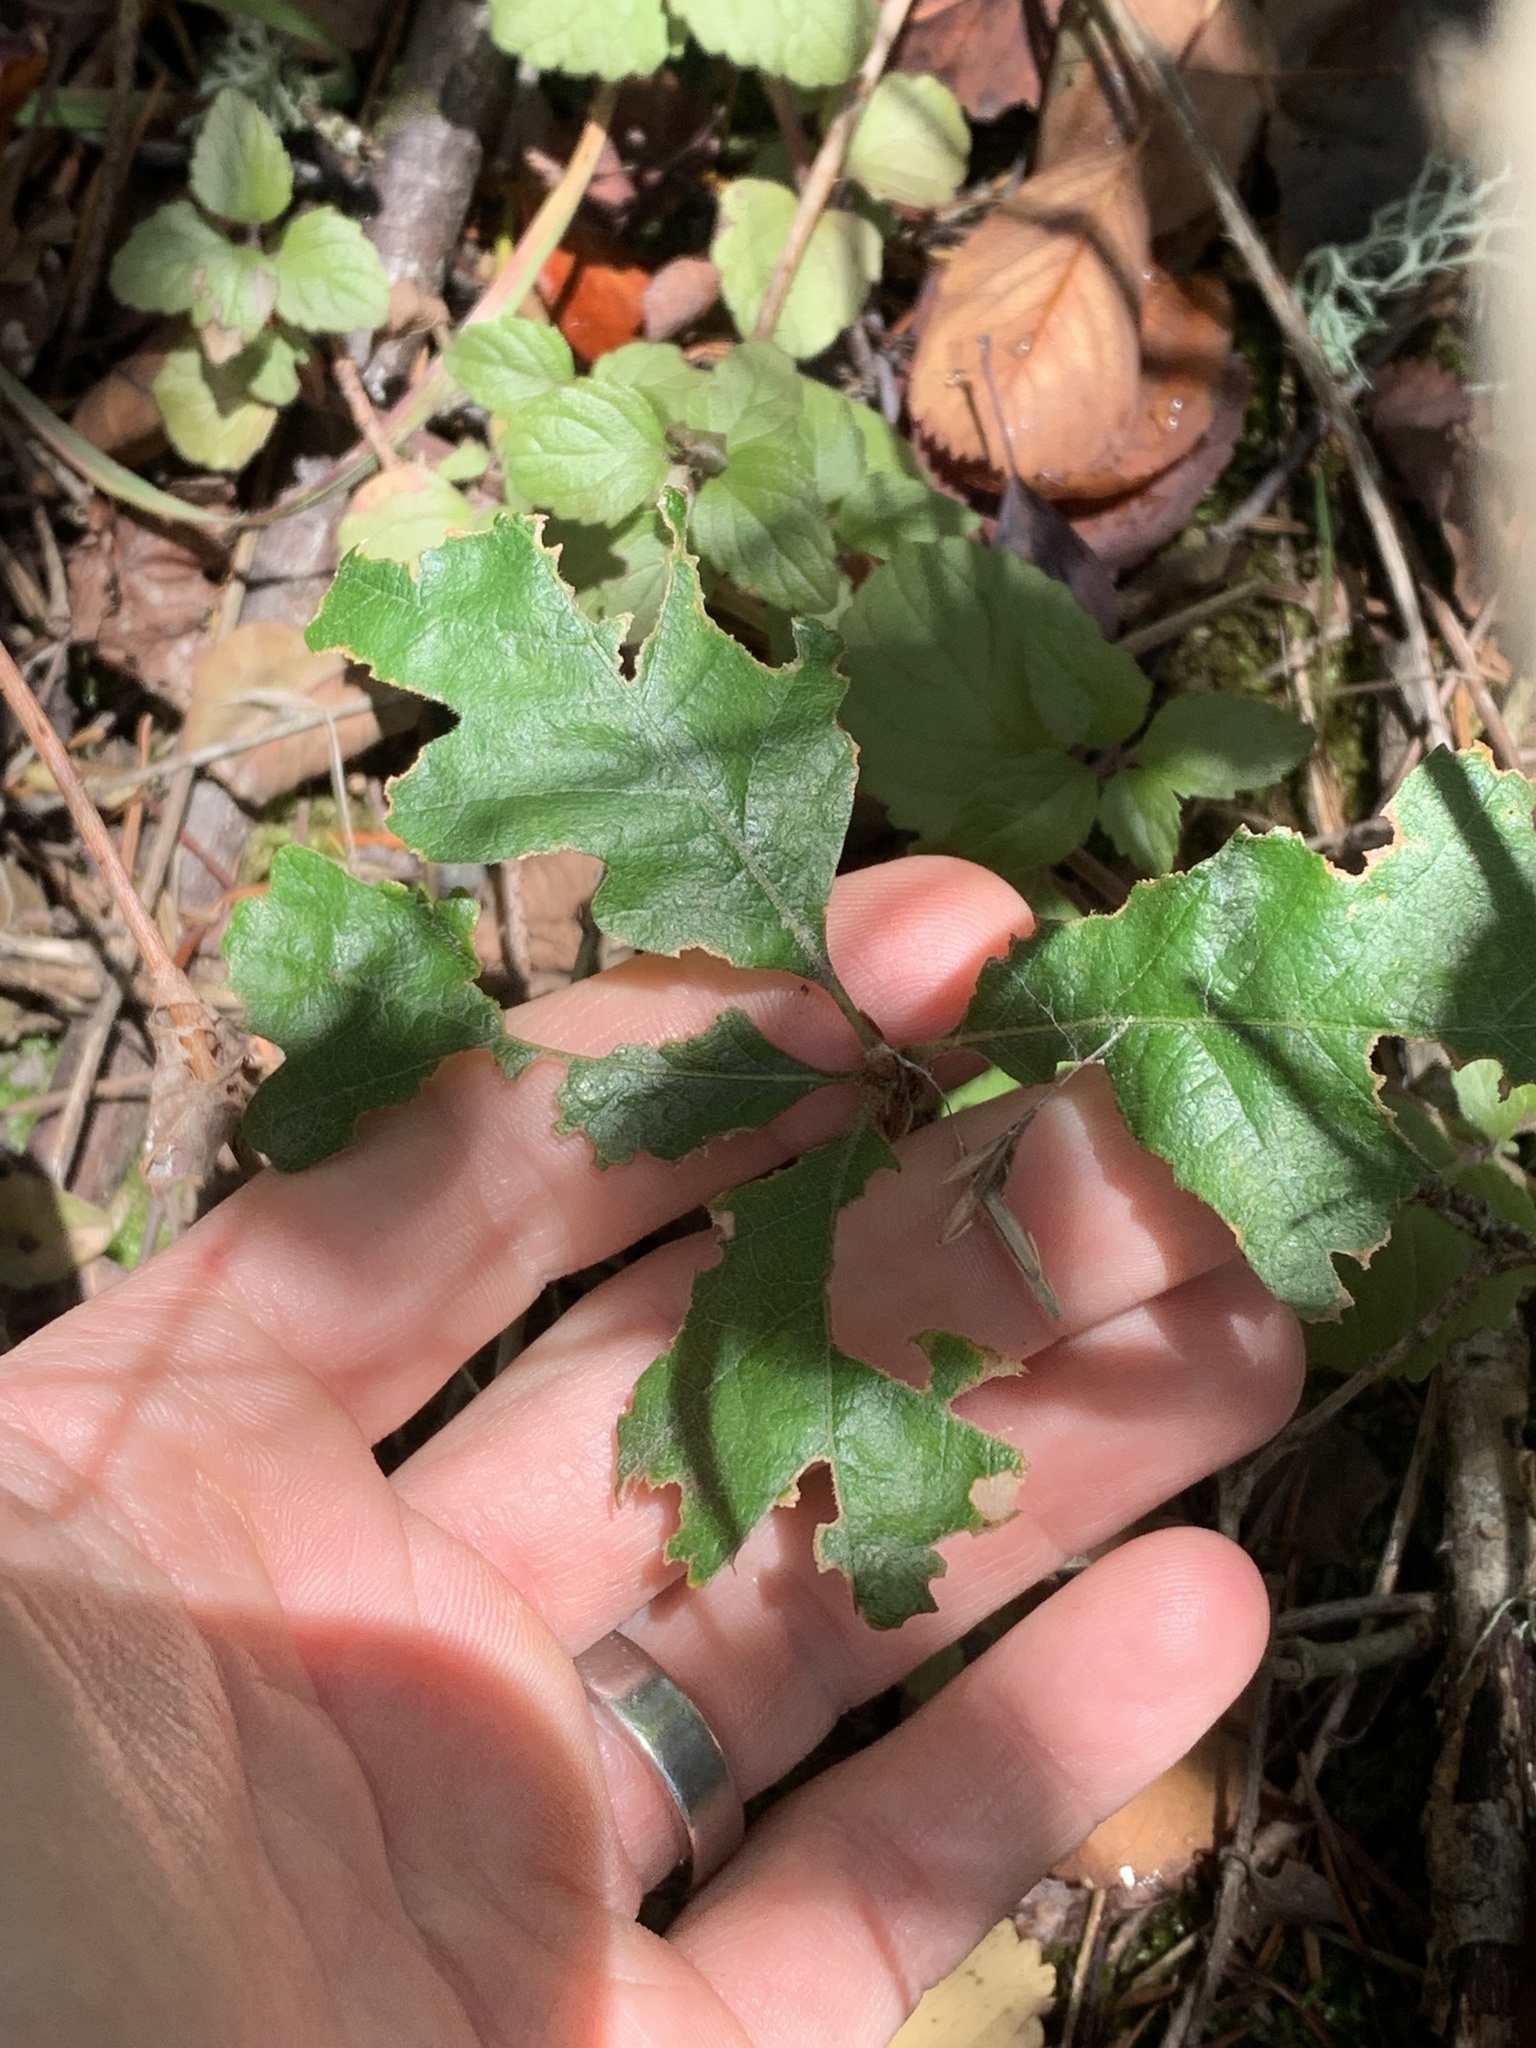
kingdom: Plantae
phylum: Tracheophyta
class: Magnoliopsida
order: Fagales
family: Fagaceae
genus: Quercus
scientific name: Quercus garryana
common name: Garry oak
